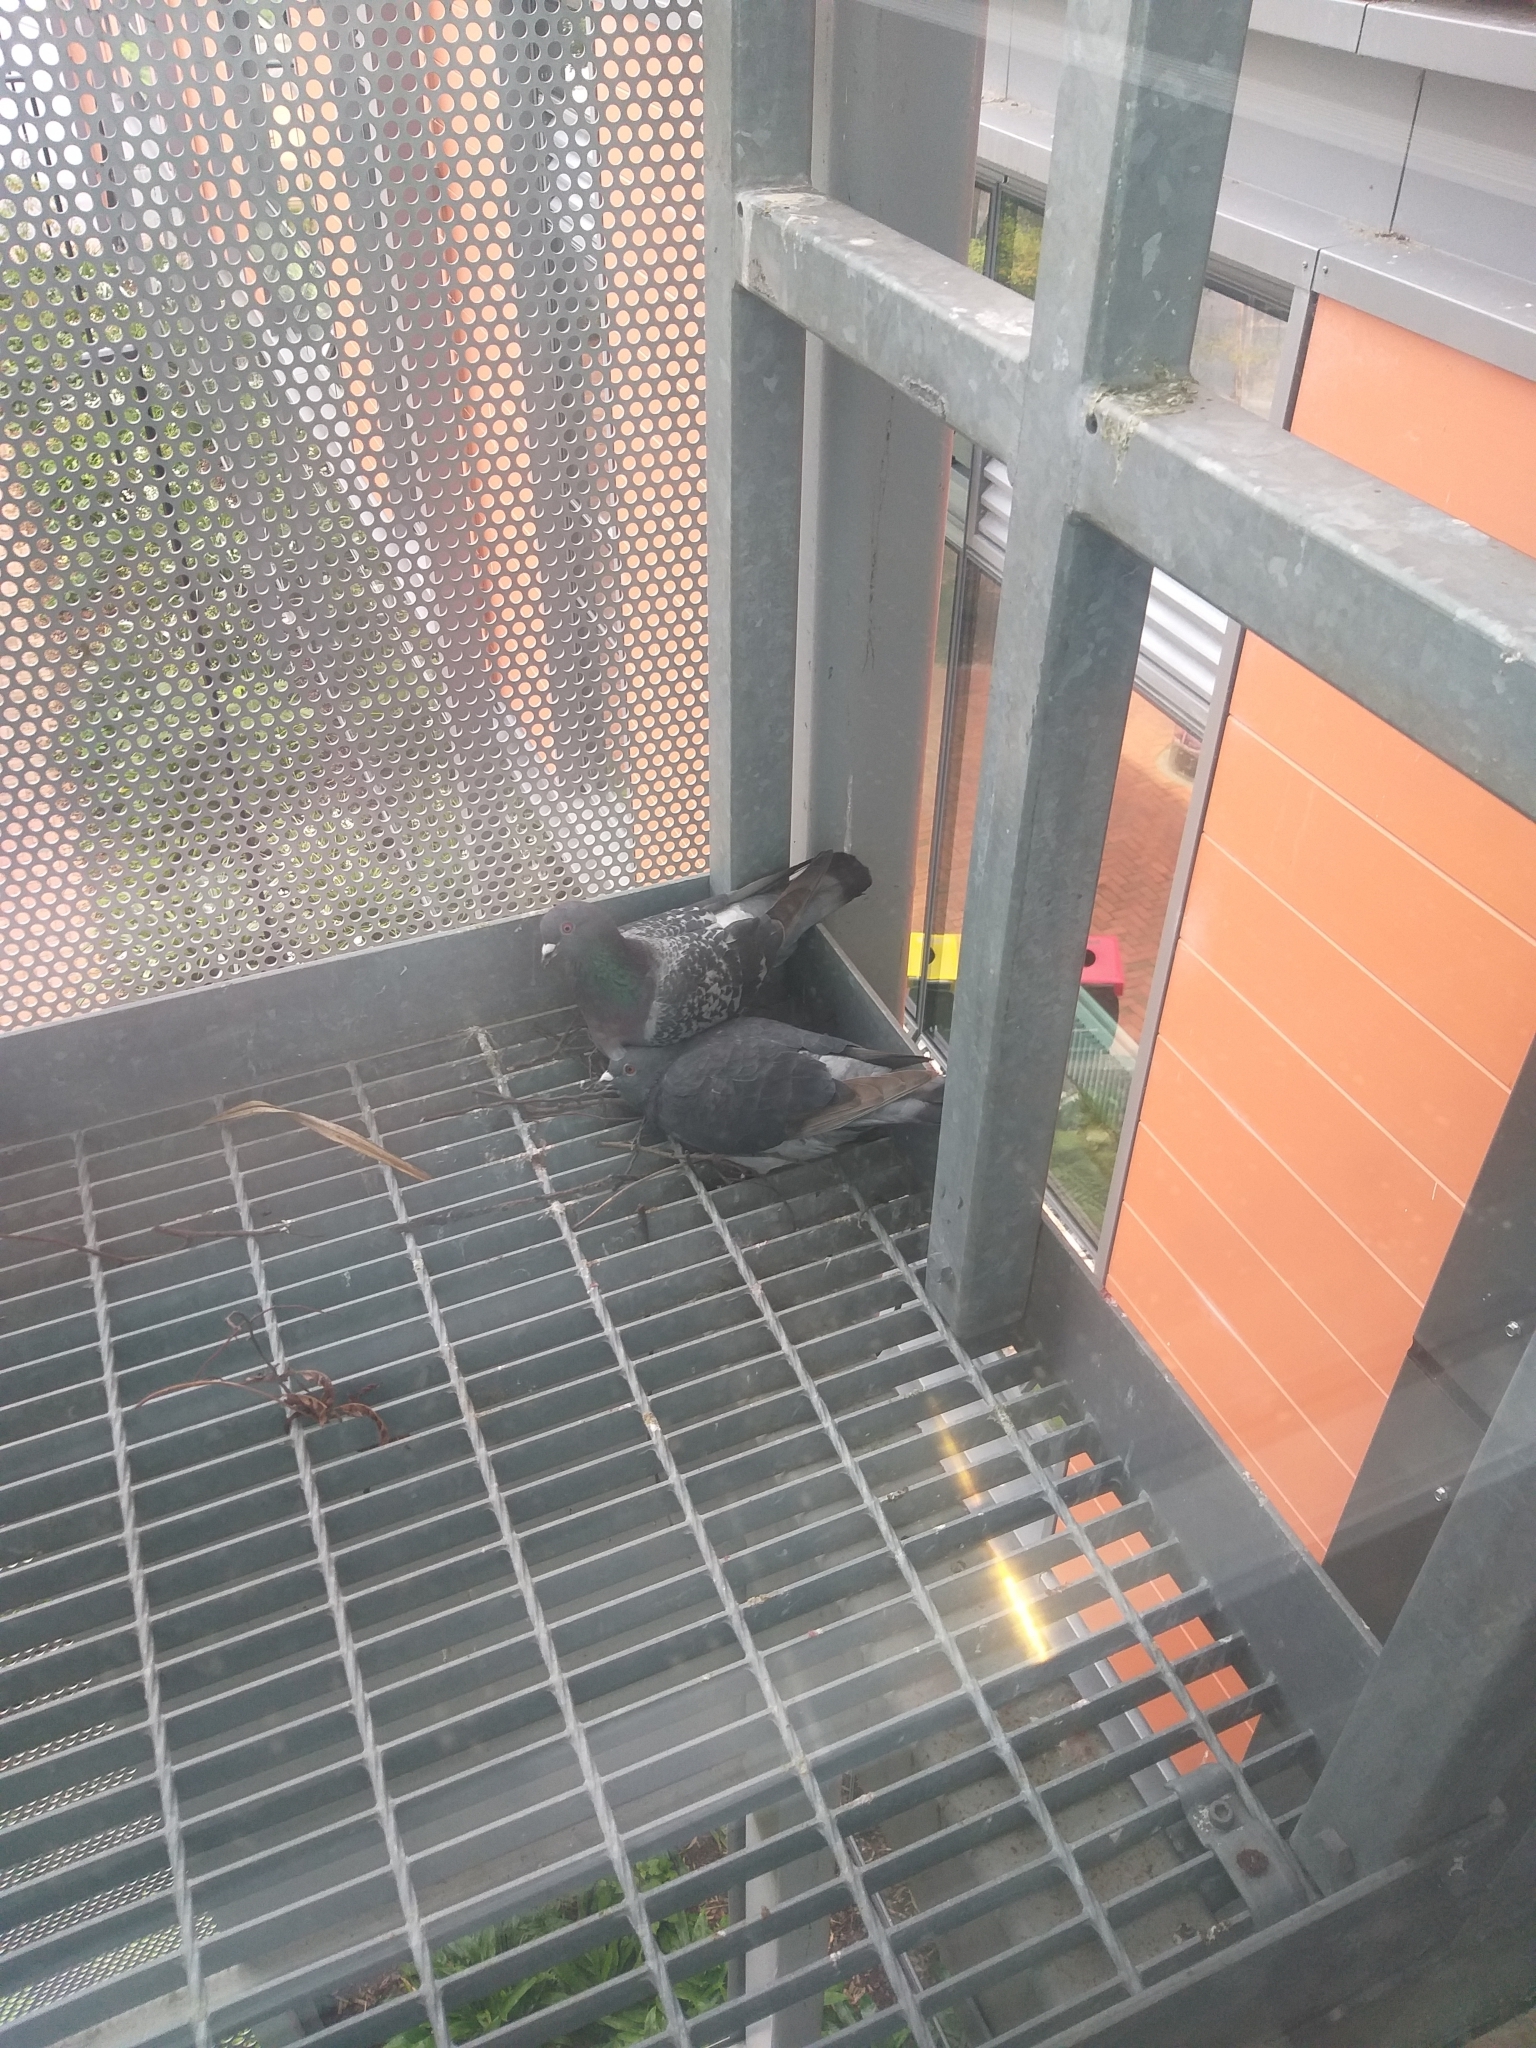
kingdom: Animalia
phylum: Chordata
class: Aves
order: Columbiformes
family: Columbidae
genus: Columba
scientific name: Columba livia
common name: Rock pigeon
